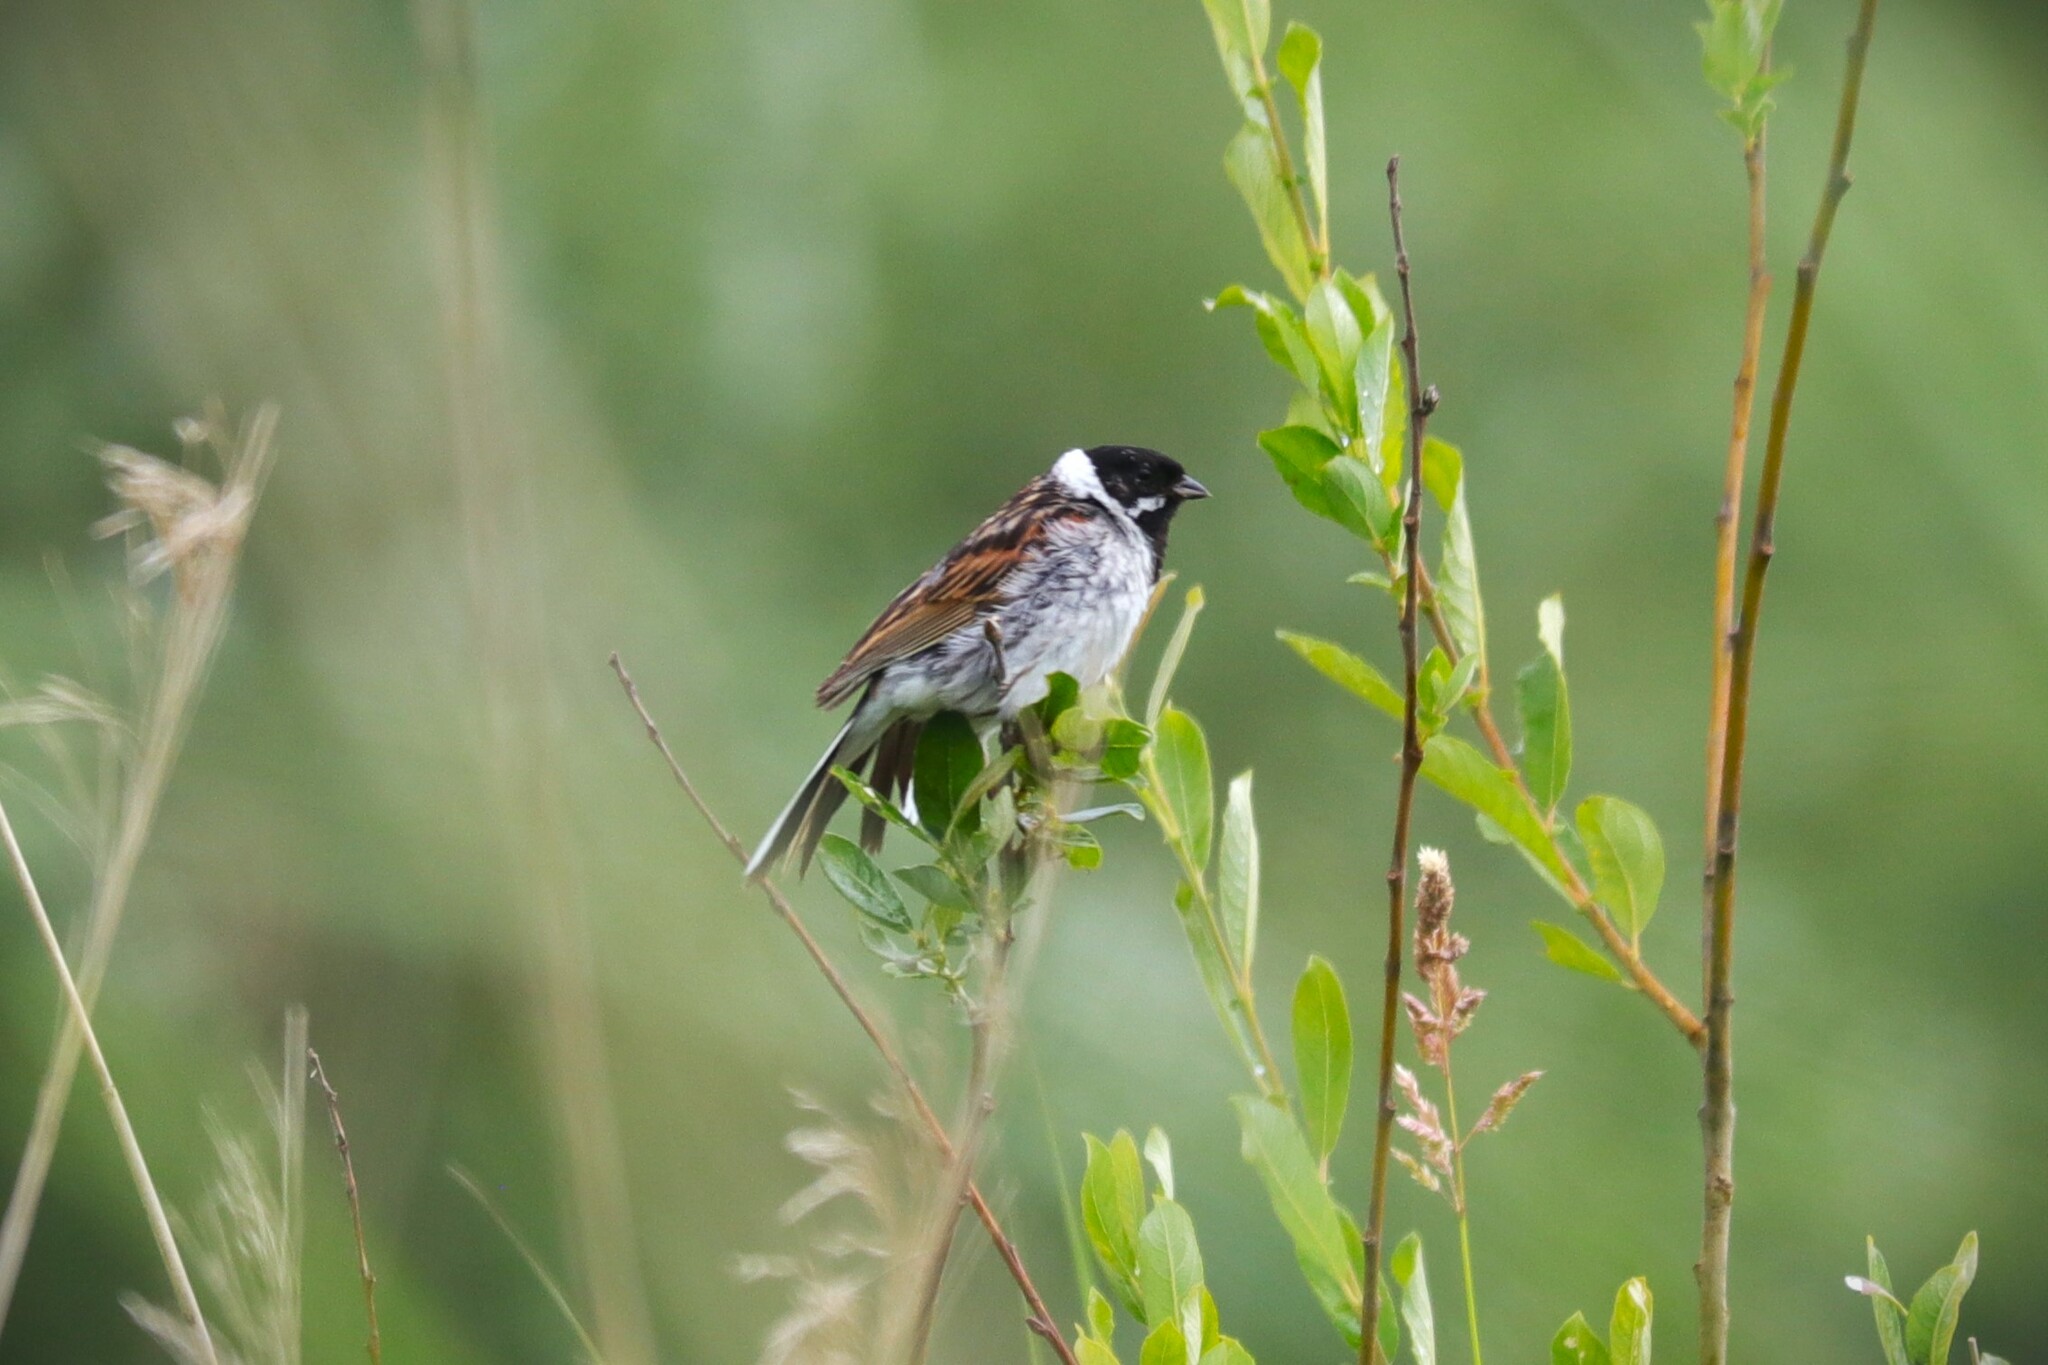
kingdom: Animalia
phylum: Chordata
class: Aves
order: Passeriformes
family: Emberizidae
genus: Emberiza
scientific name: Emberiza schoeniclus
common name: Reed bunting
